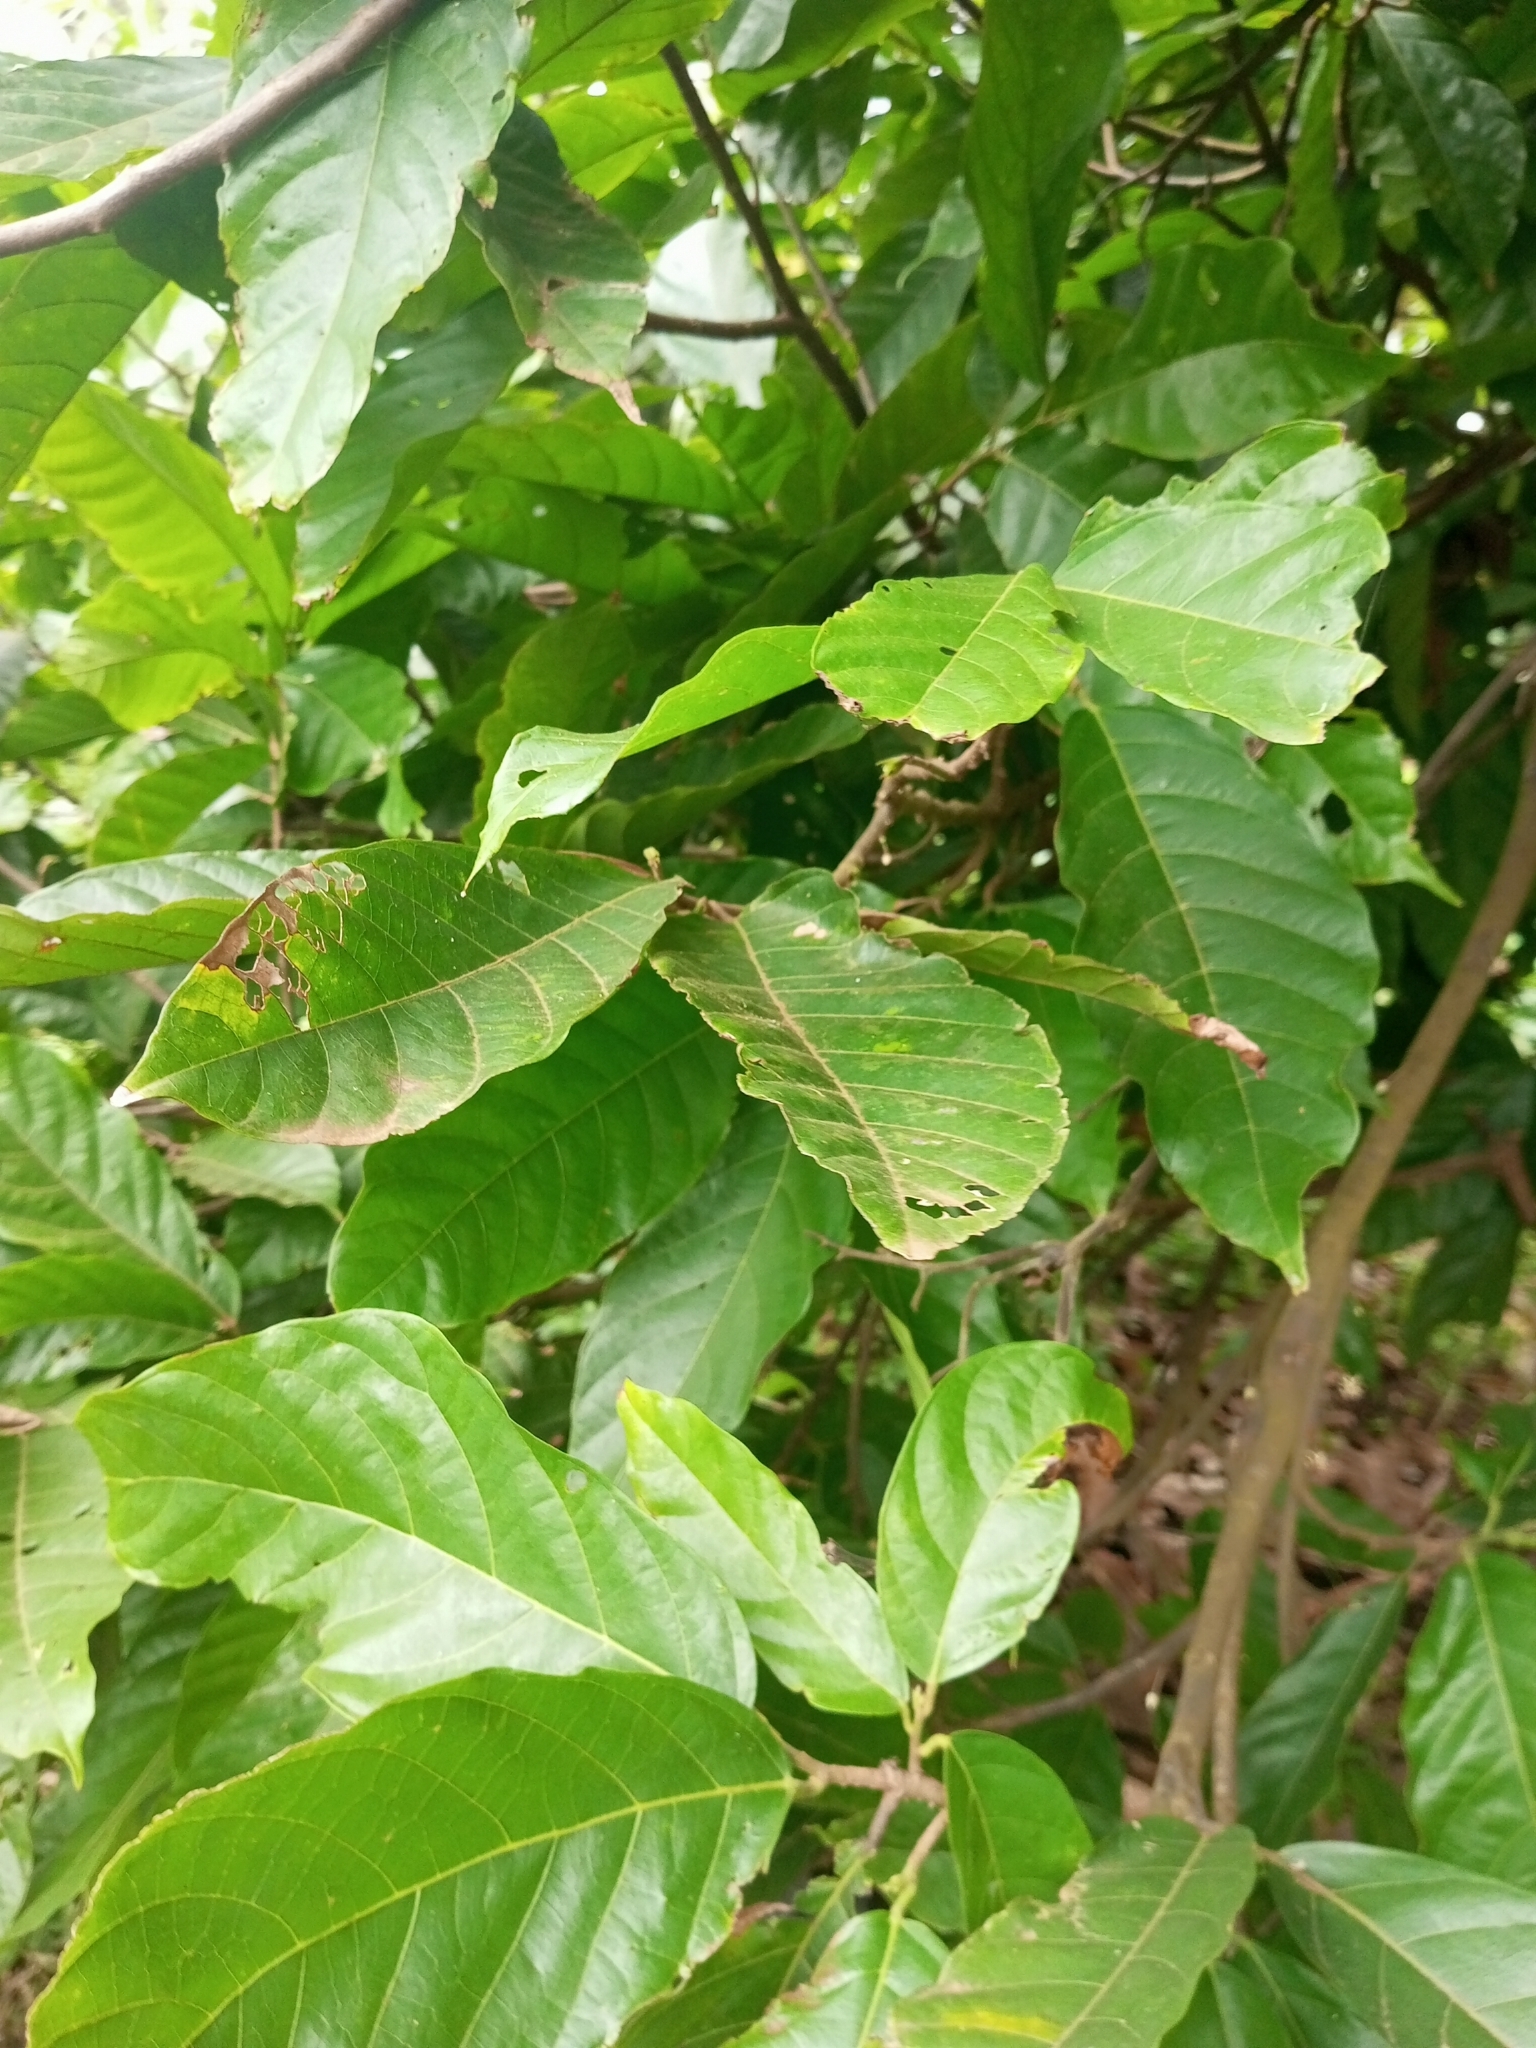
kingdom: Plantae
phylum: Tracheophyta
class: Magnoliopsida
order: Malvales
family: Malvaceae
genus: Theobroma
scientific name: Theobroma cacao
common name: Cocoa
